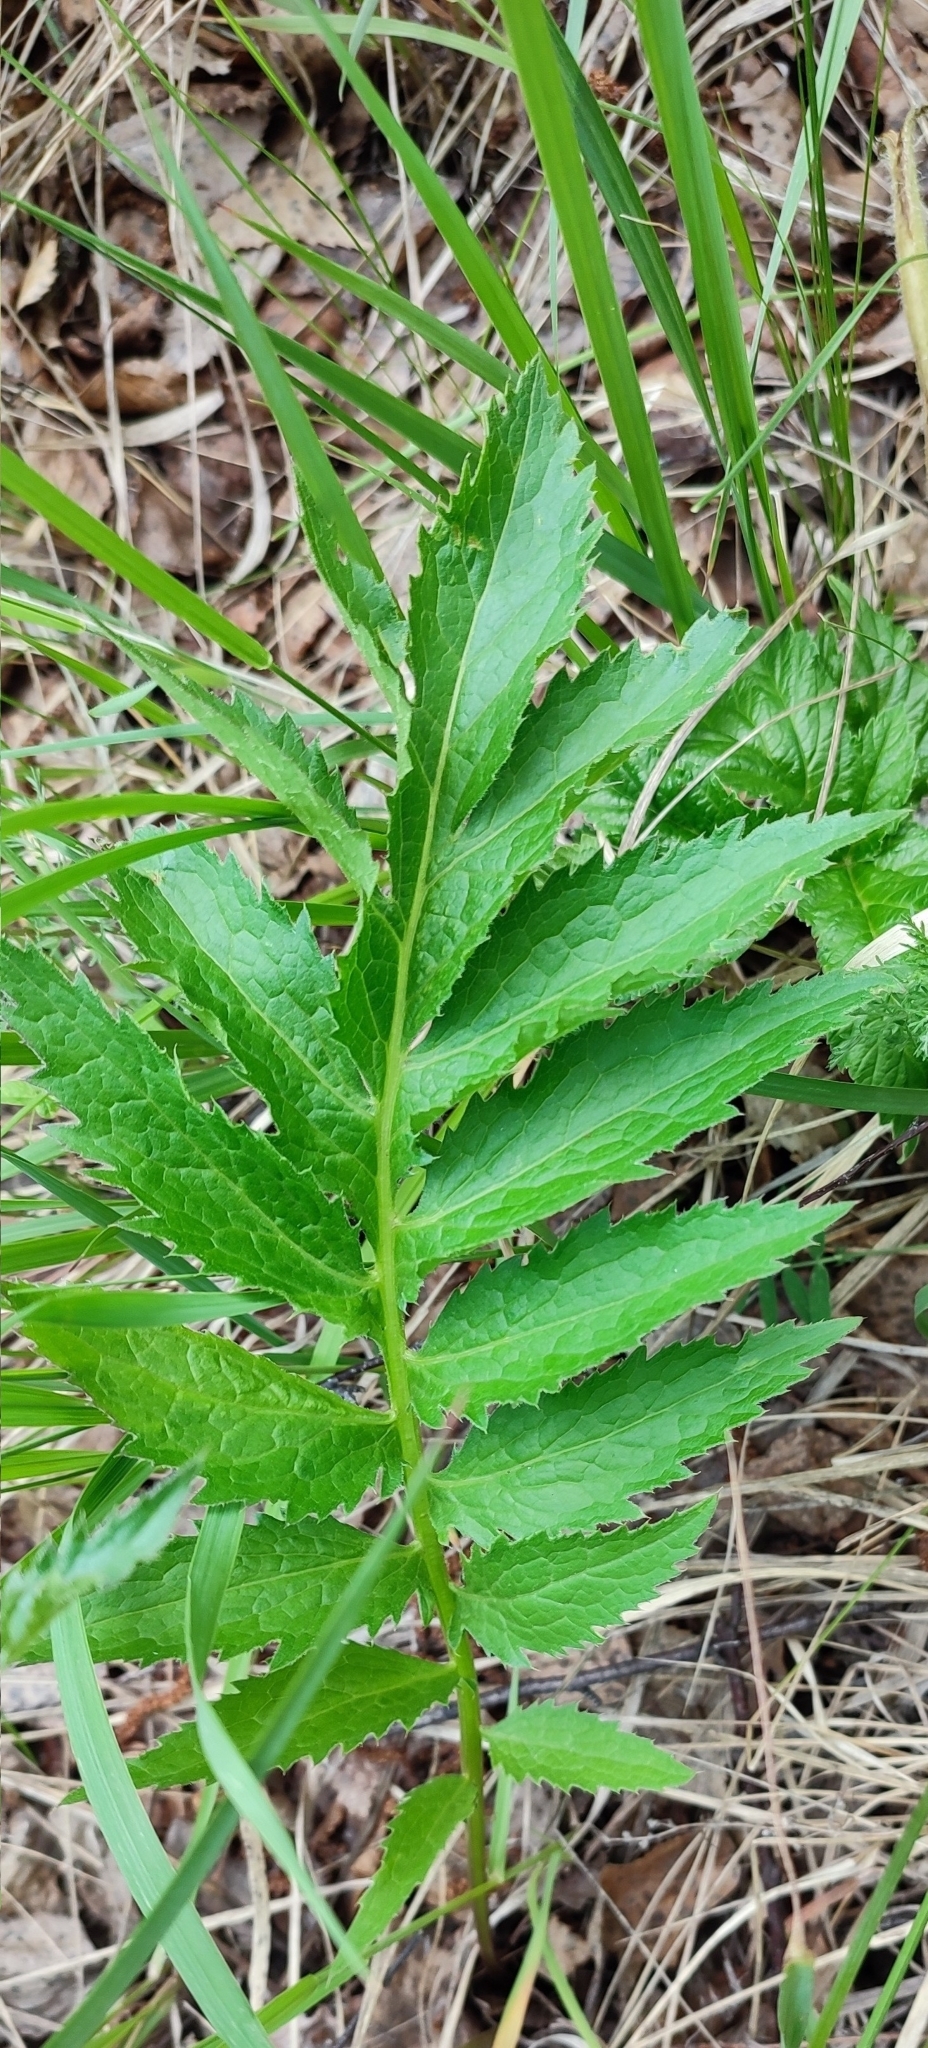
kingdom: Plantae
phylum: Tracheophyta
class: Magnoliopsida
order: Asterales
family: Asteraceae
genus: Serratula
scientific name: Serratula coronata
